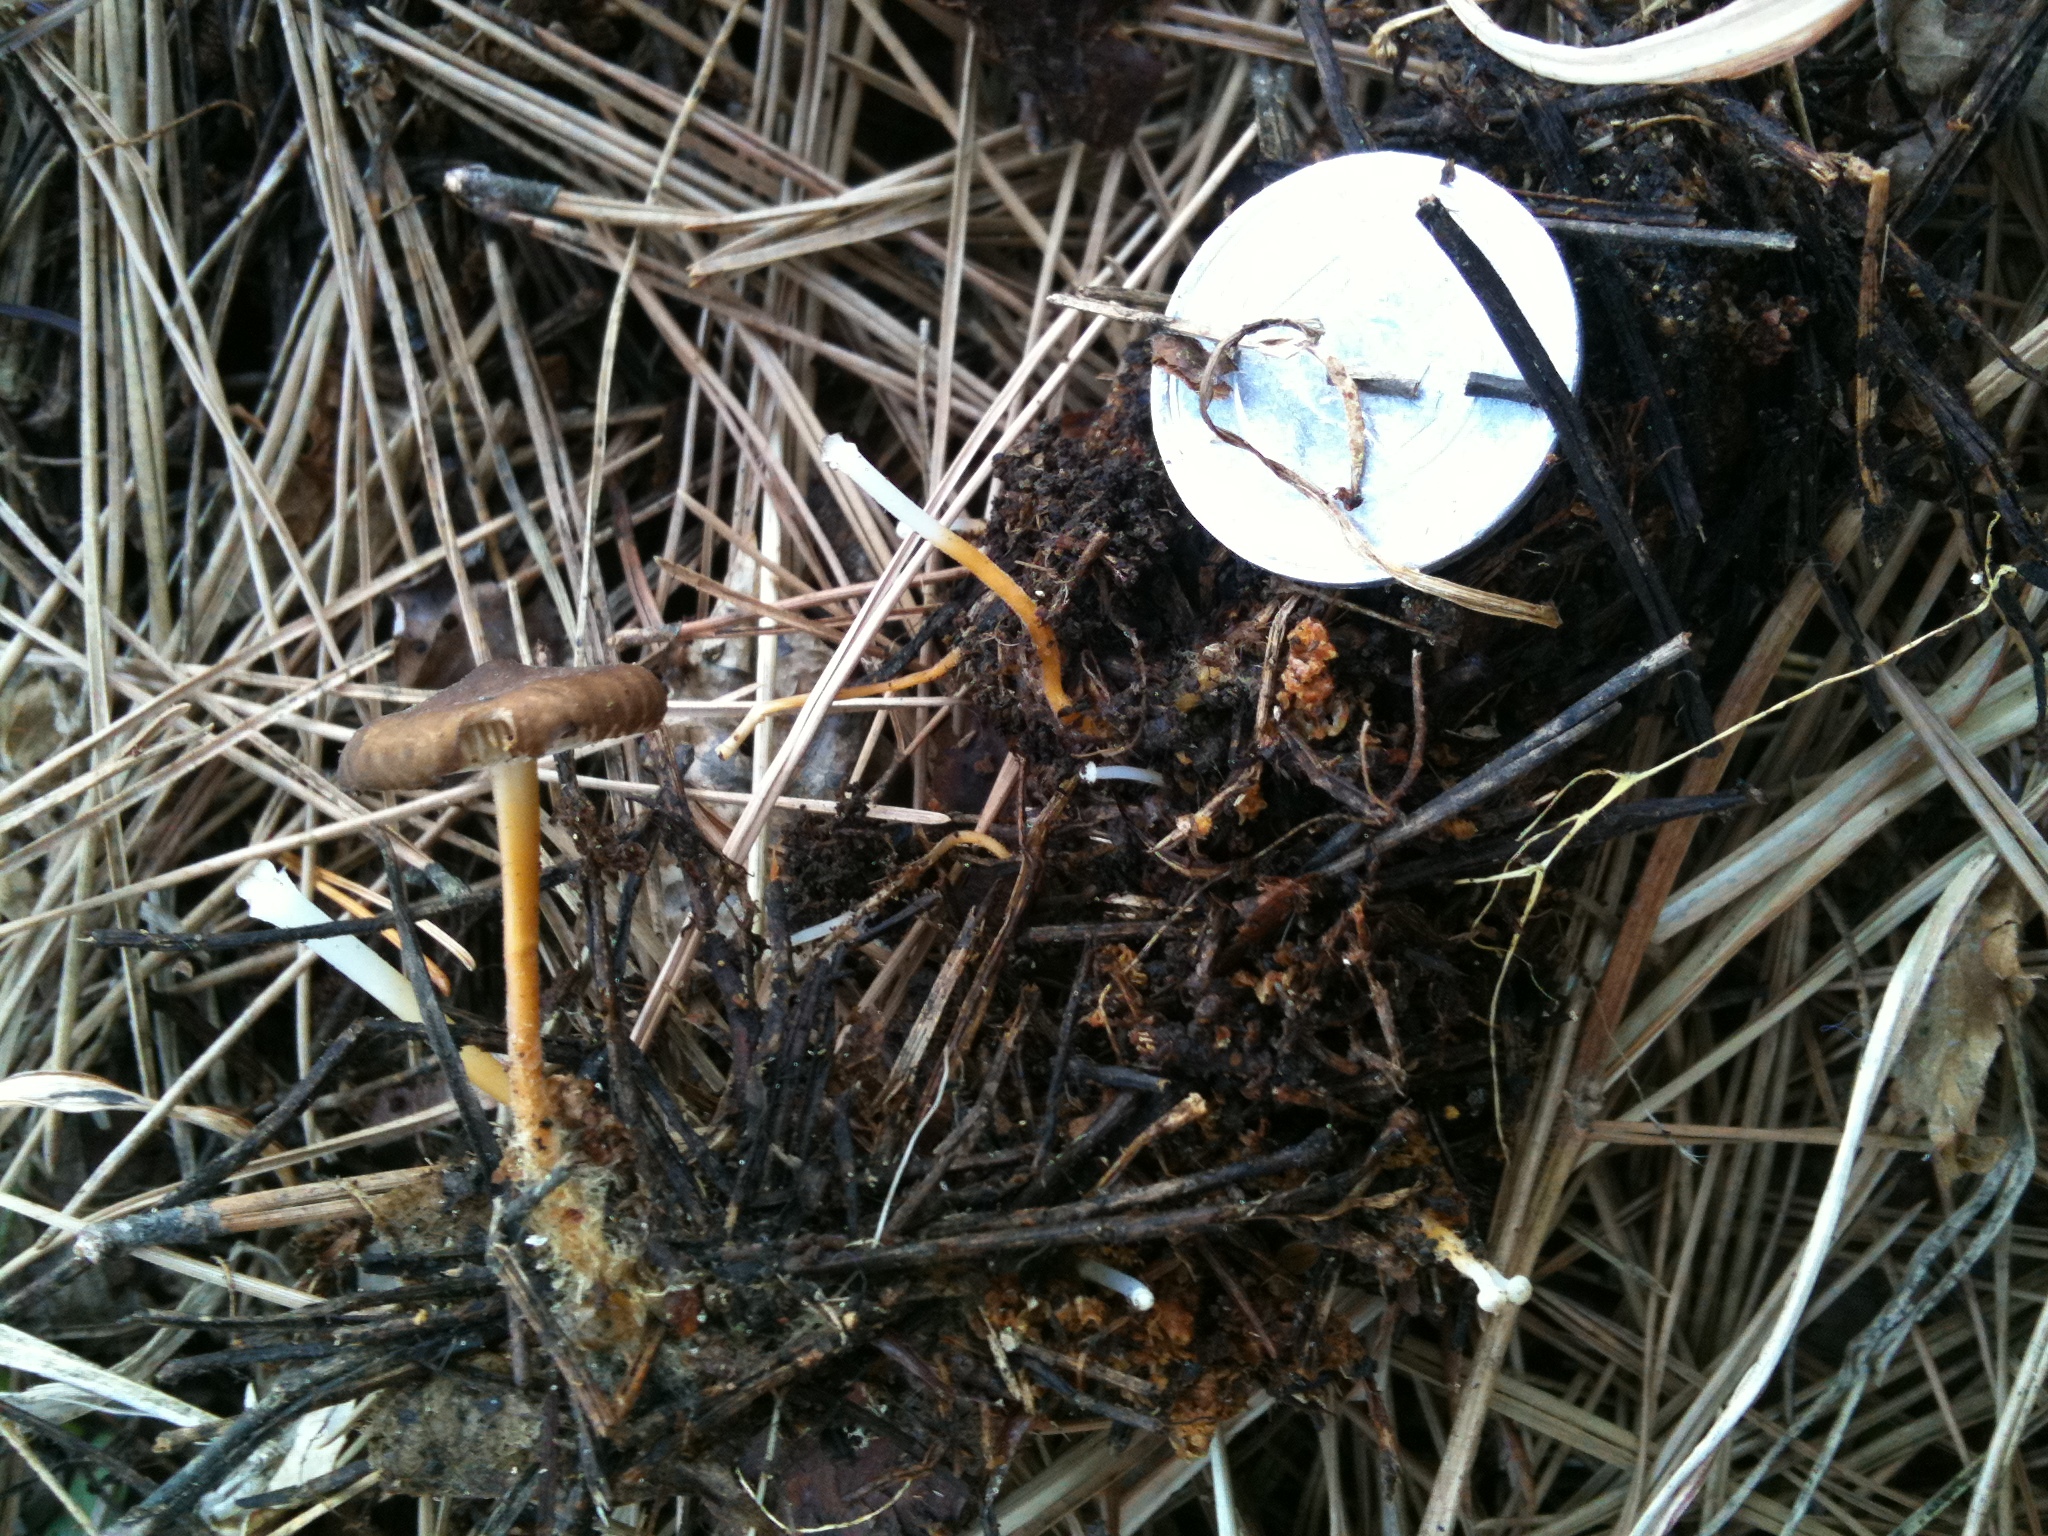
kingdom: Fungi
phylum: Basidiomycota
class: Agaricomycetes
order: Agaricales
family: Physalacriaceae
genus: Strobilurus
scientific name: Strobilurus stephanocystis
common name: Russian conecap
